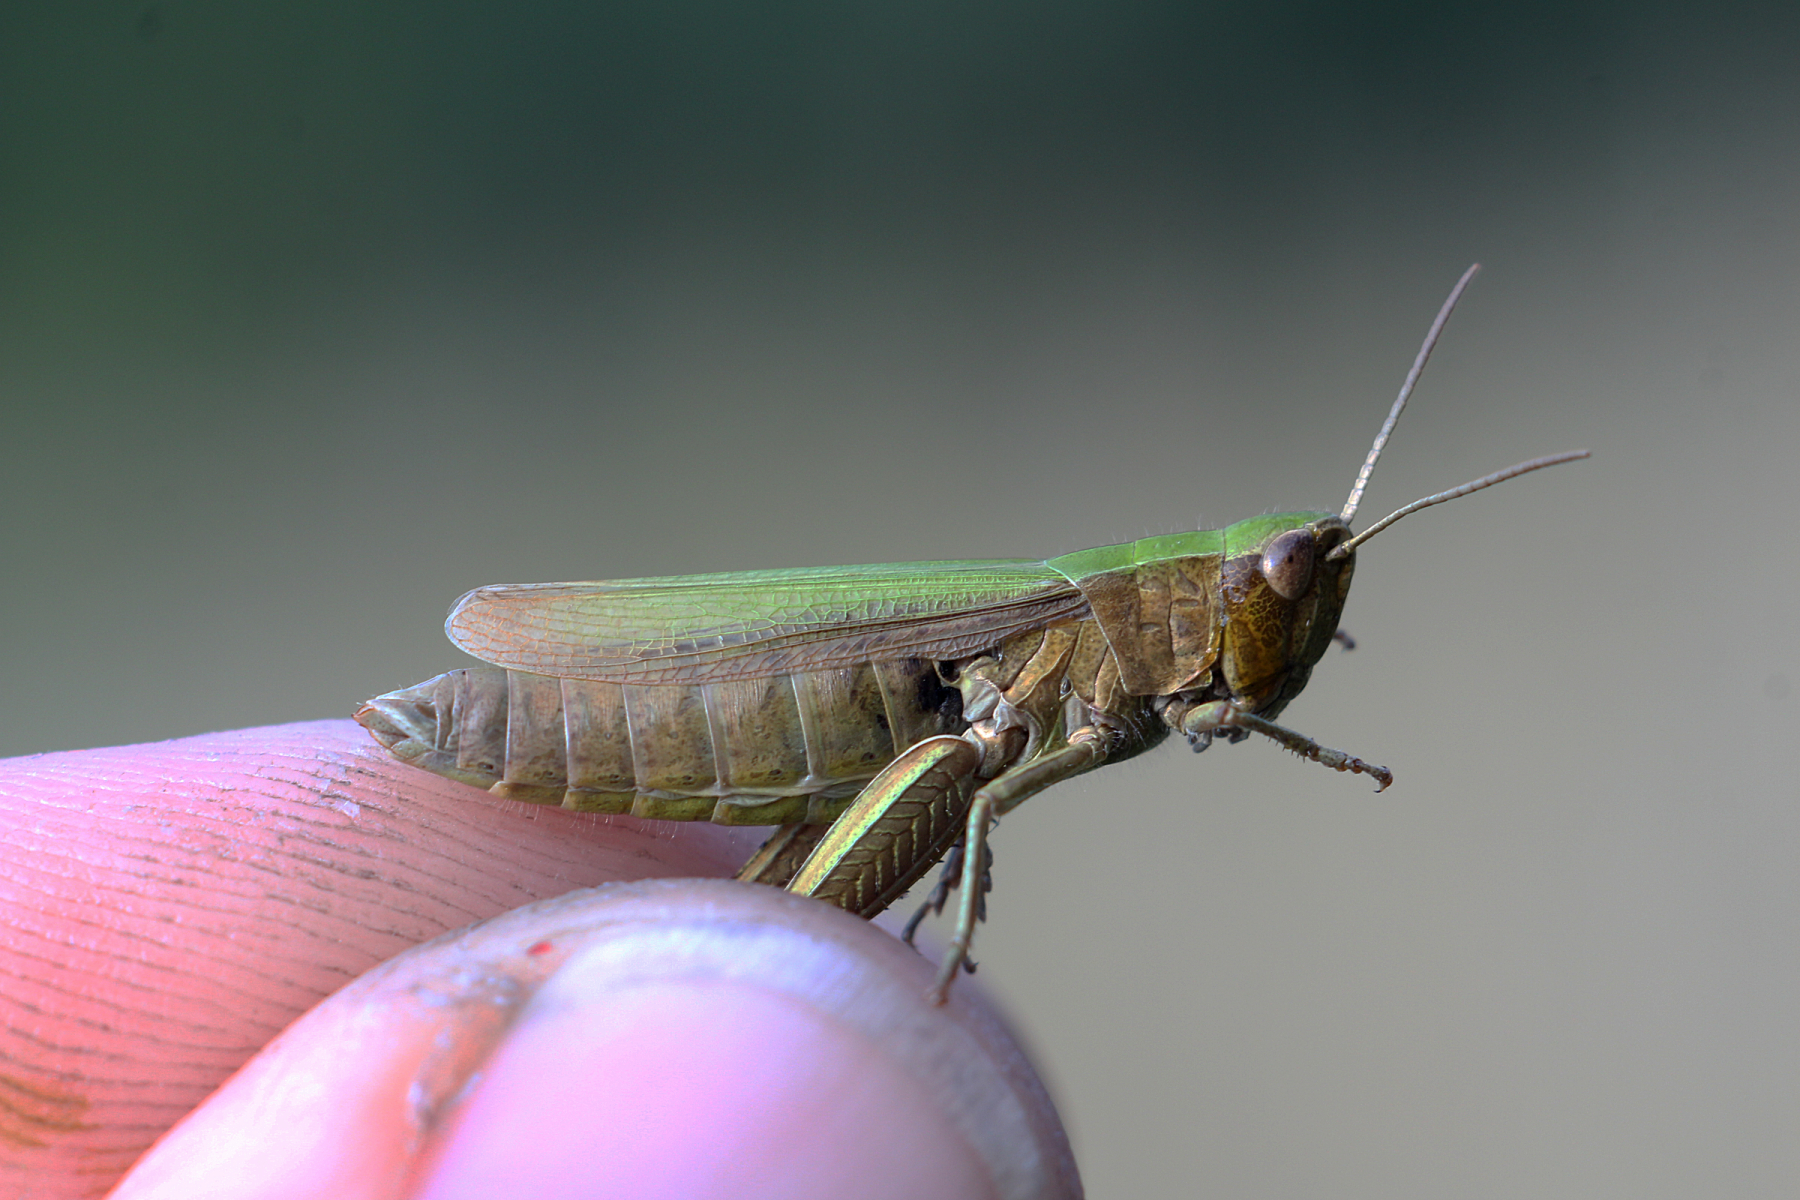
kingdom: Animalia
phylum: Arthropoda
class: Insecta
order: Orthoptera
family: Acrididae
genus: Chorthippus
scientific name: Chorthippus dorsatus
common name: Steppe grasshopper
